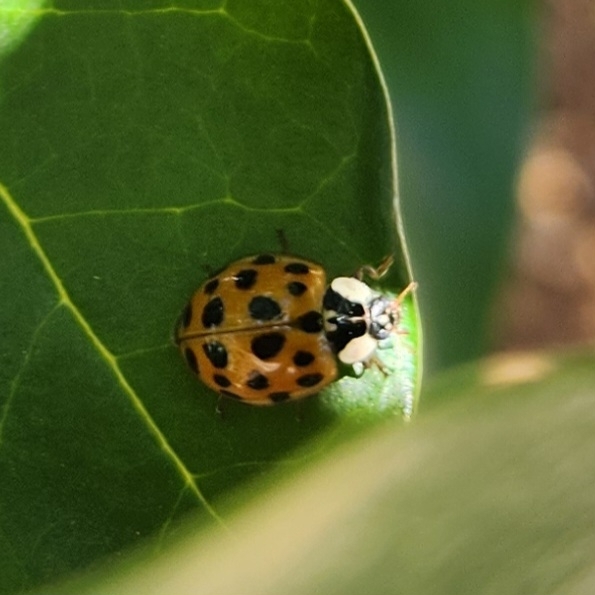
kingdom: Animalia
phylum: Arthropoda
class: Insecta
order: Coleoptera
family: Coccinellidae
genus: Harmonia
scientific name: Harmonia axyridis
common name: Harlequin ladybird
